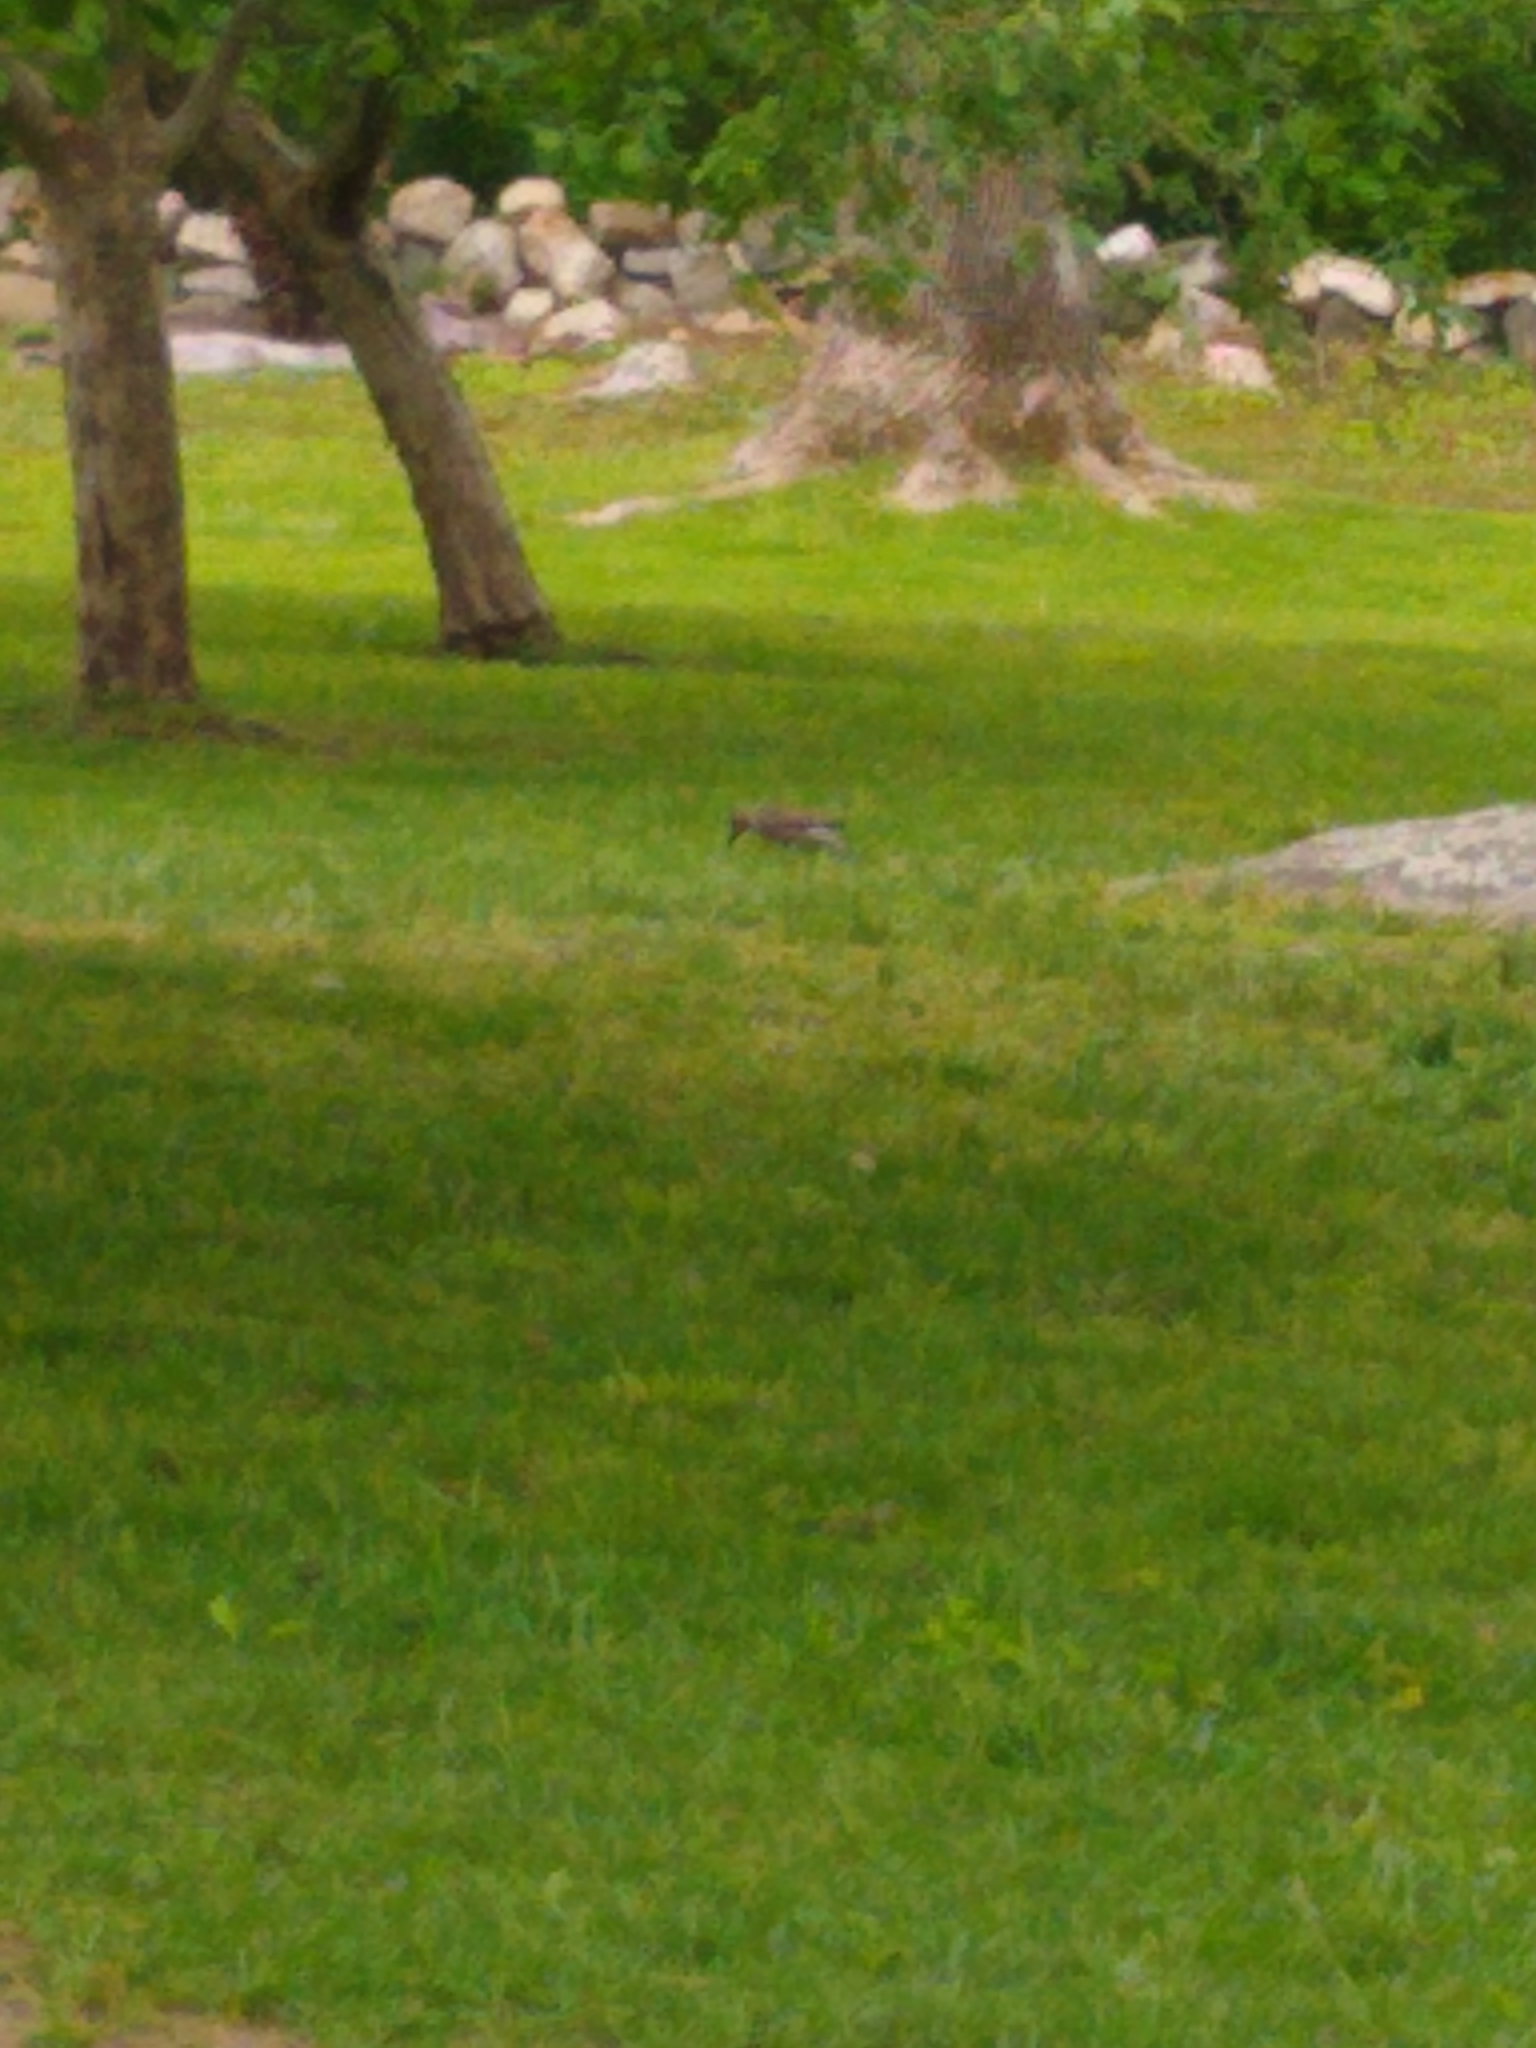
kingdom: Animalia
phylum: Chordata
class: Aves
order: Piciformes
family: Picidae
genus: Colaptes
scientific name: Colaptes auratus
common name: Northern flicker
